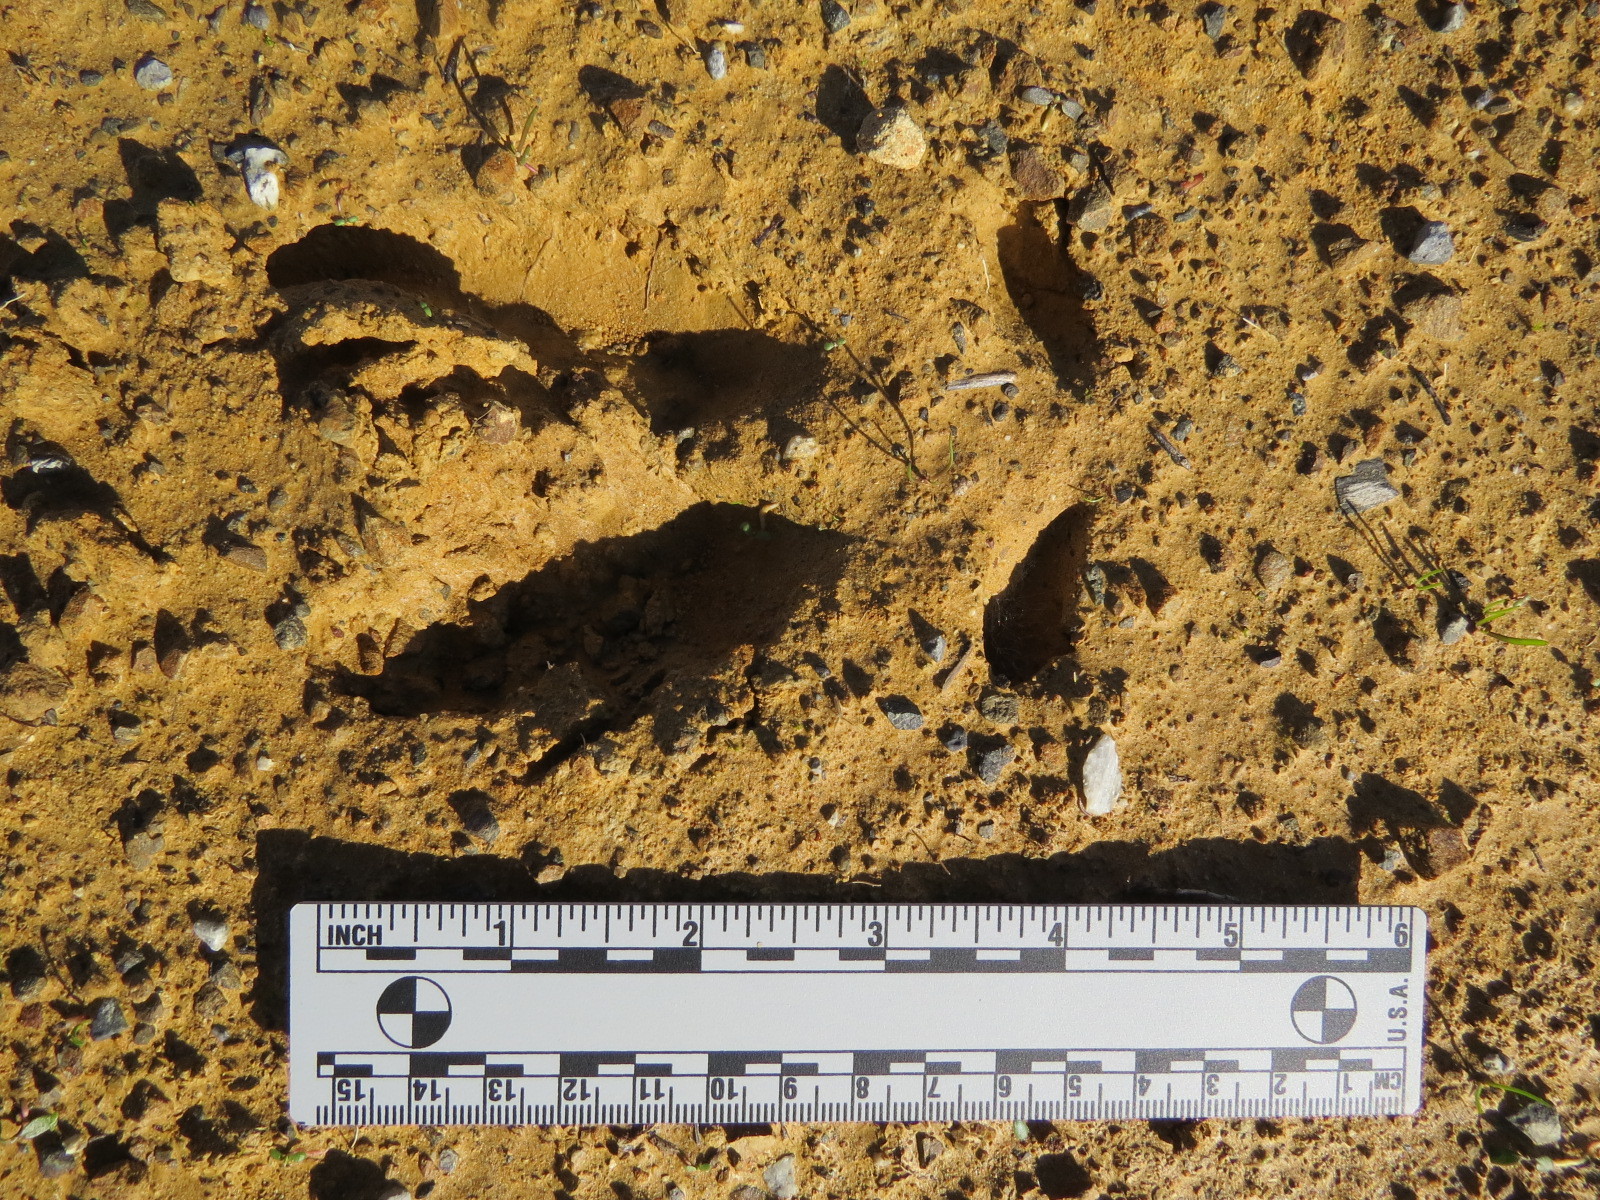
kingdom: Animalia
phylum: Chordata
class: Mammalia
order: Artiodactyla
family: Cervidae
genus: Odocoileus
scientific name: Odocoileus hemionus
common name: Mule deer
